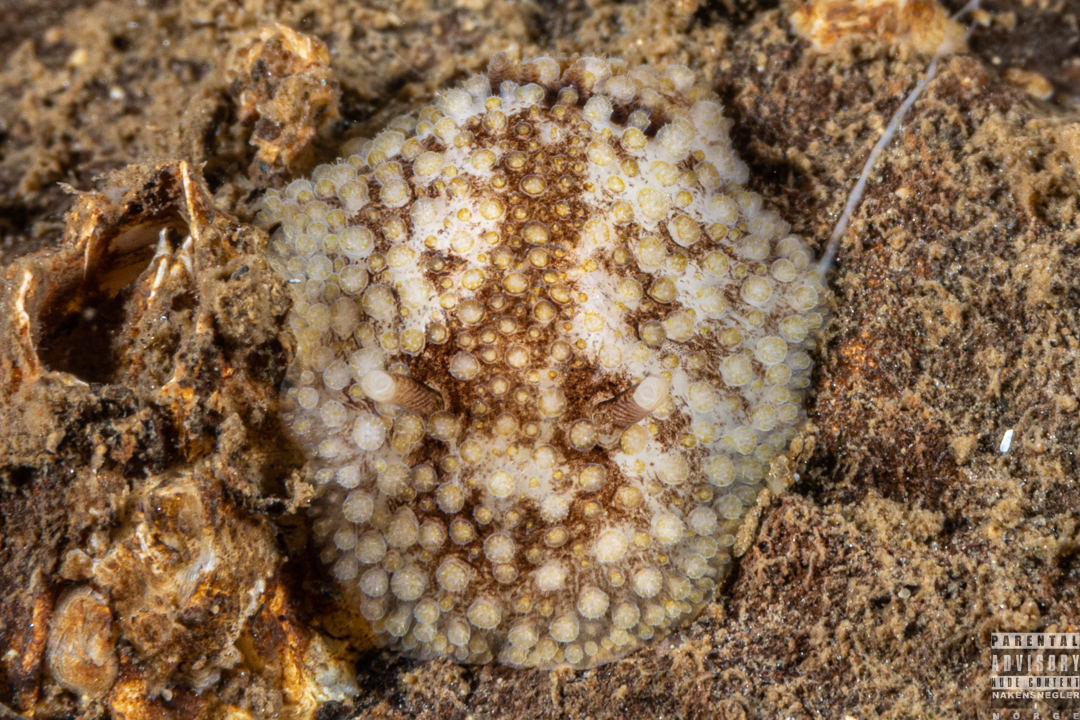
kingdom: Animalia
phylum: Mollusca
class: Gastropoda
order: Nudibranchia
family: Onchidorididae
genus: Onchidoris
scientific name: Onchidoris bilamellata
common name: Barnacle-eating onchidoris
